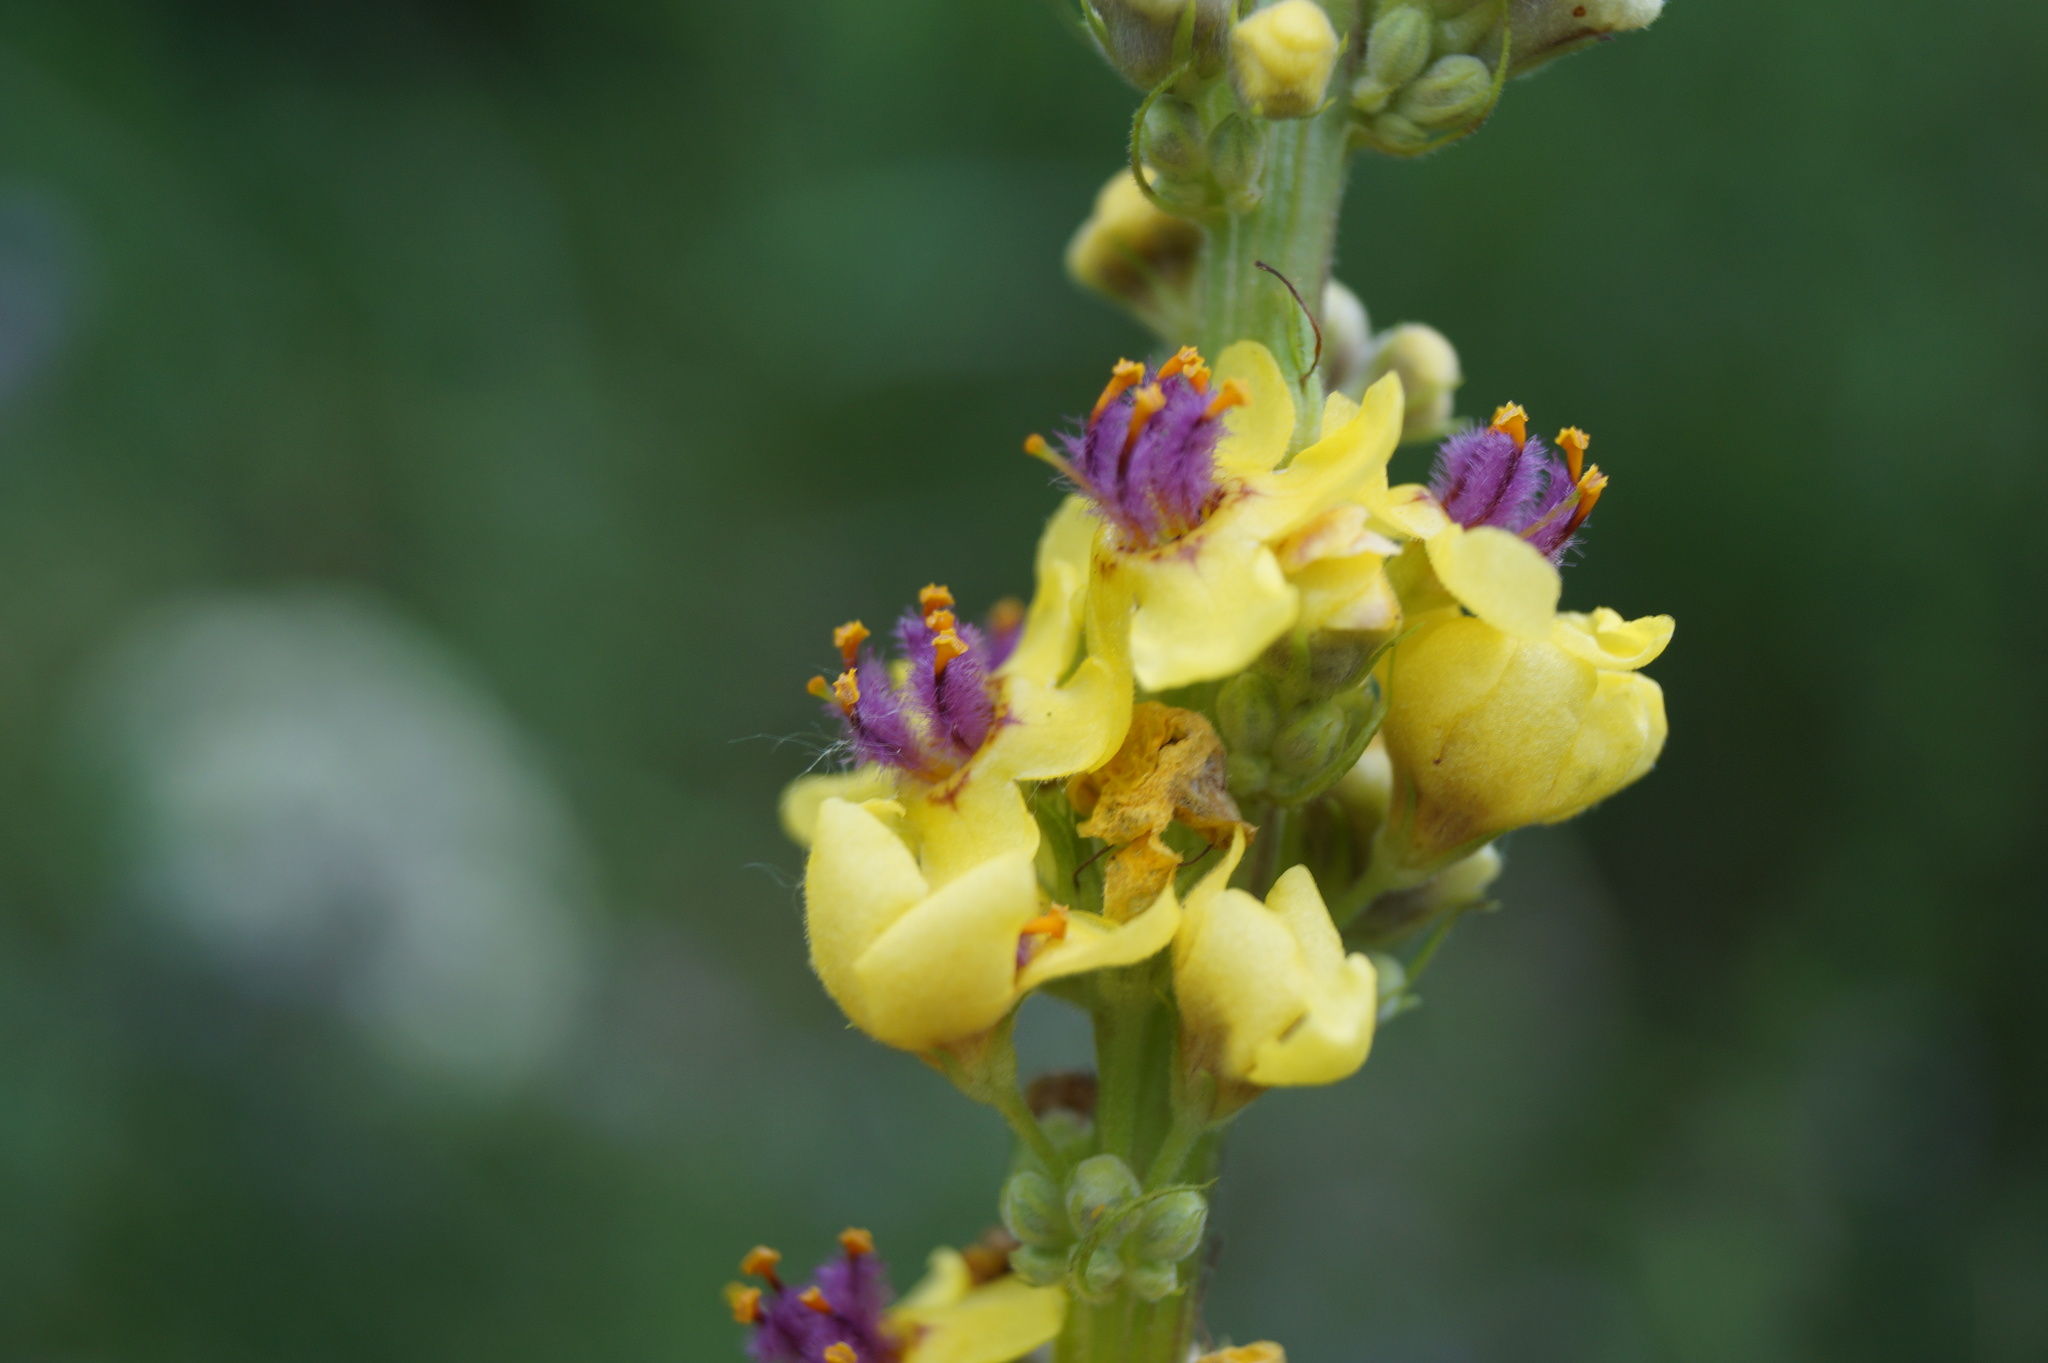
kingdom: Plantae
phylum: Tracheophyta
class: Magnoliopsida
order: Lamiales
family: Scrophulariaceae
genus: Verbascum
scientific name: Verbascum nigrum
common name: Dark mullein
